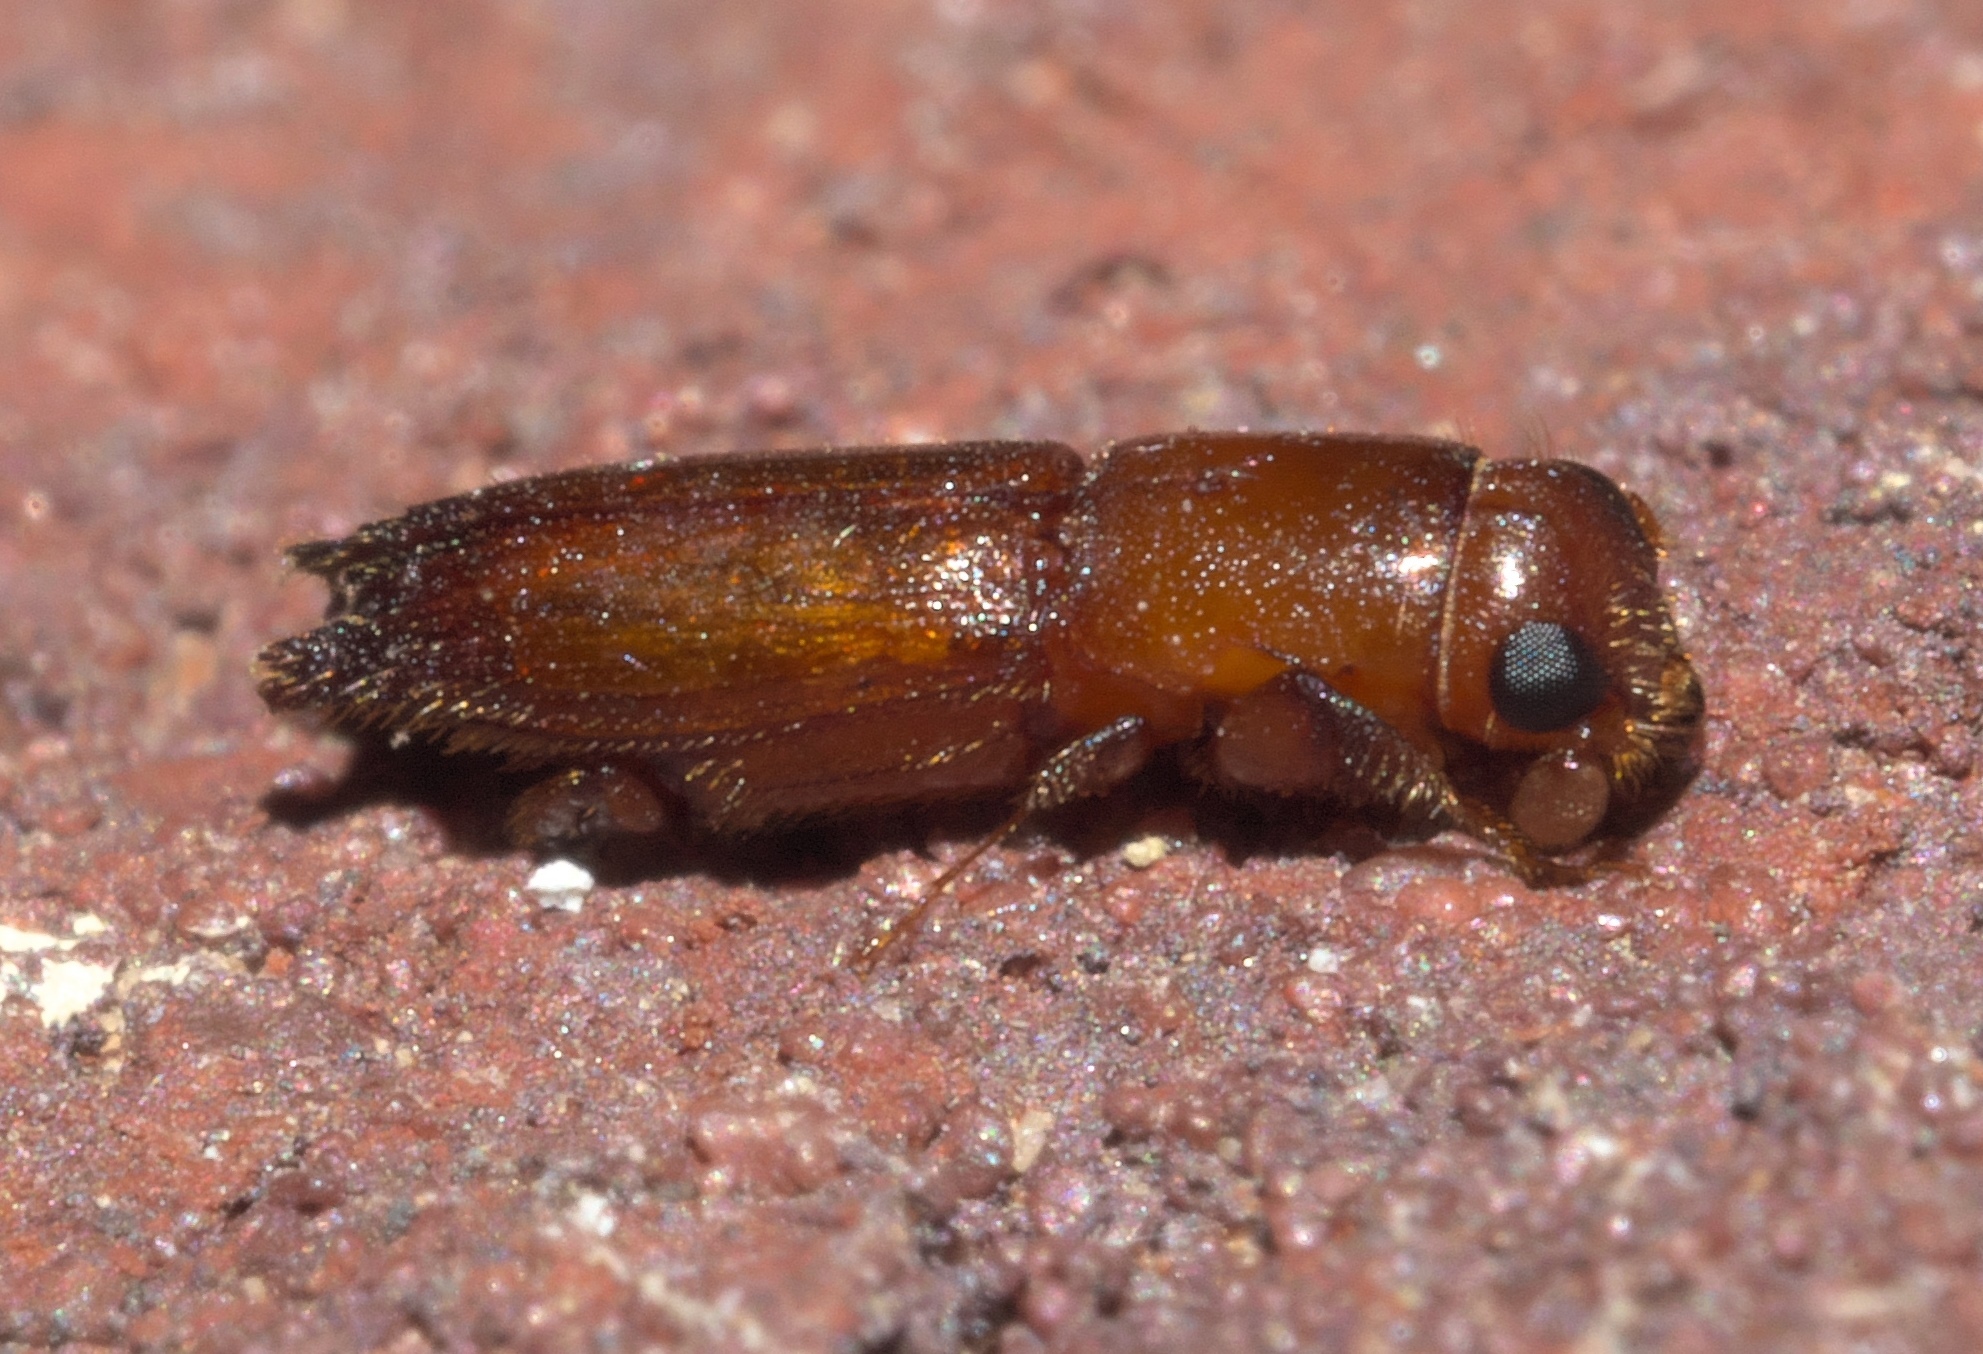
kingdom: Animalia
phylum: Arthropoda
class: Insecta
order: Coleoptera
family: Curculionidae
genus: Euplatypus
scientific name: Euplatypus compositus
